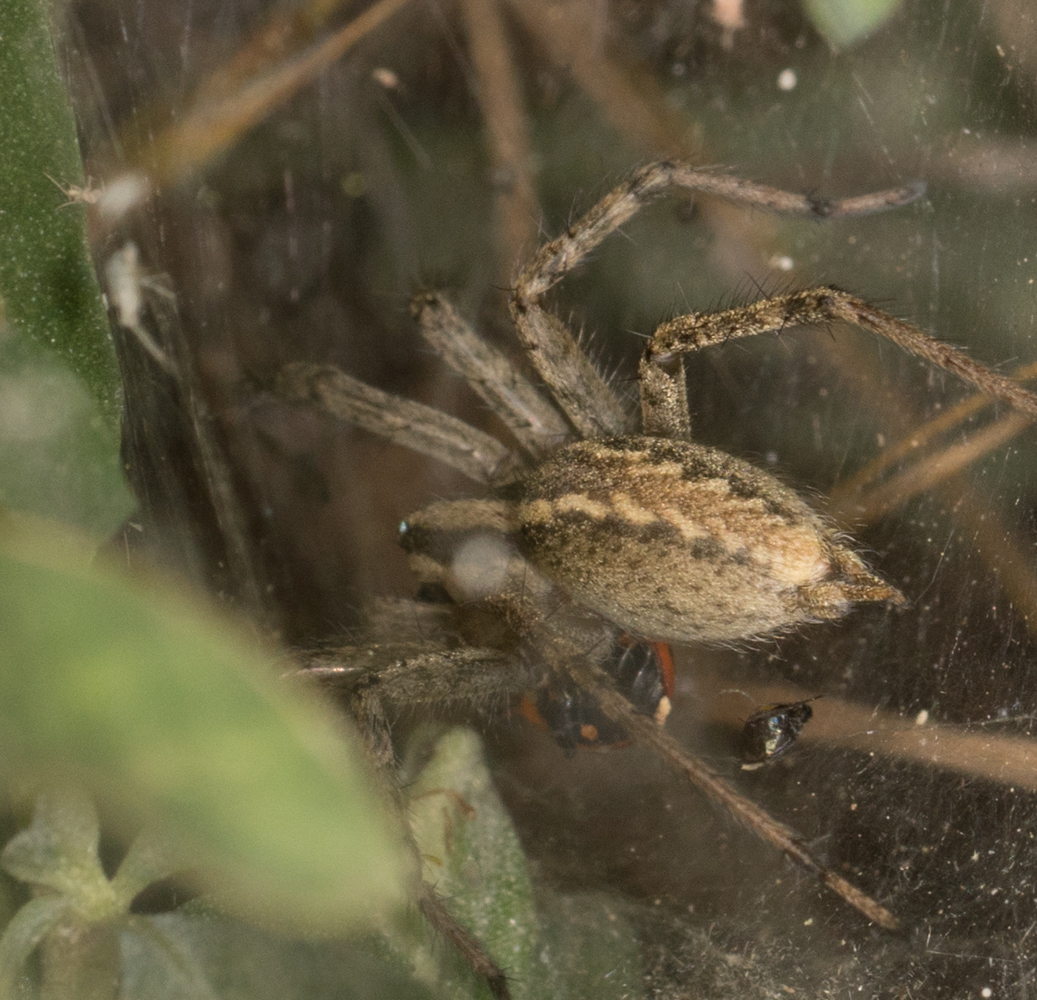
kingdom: Animalia
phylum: Arthropoda
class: Arachnida
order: Araneae
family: Agelenidae
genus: Agelenopsis
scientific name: Agelenopsis
